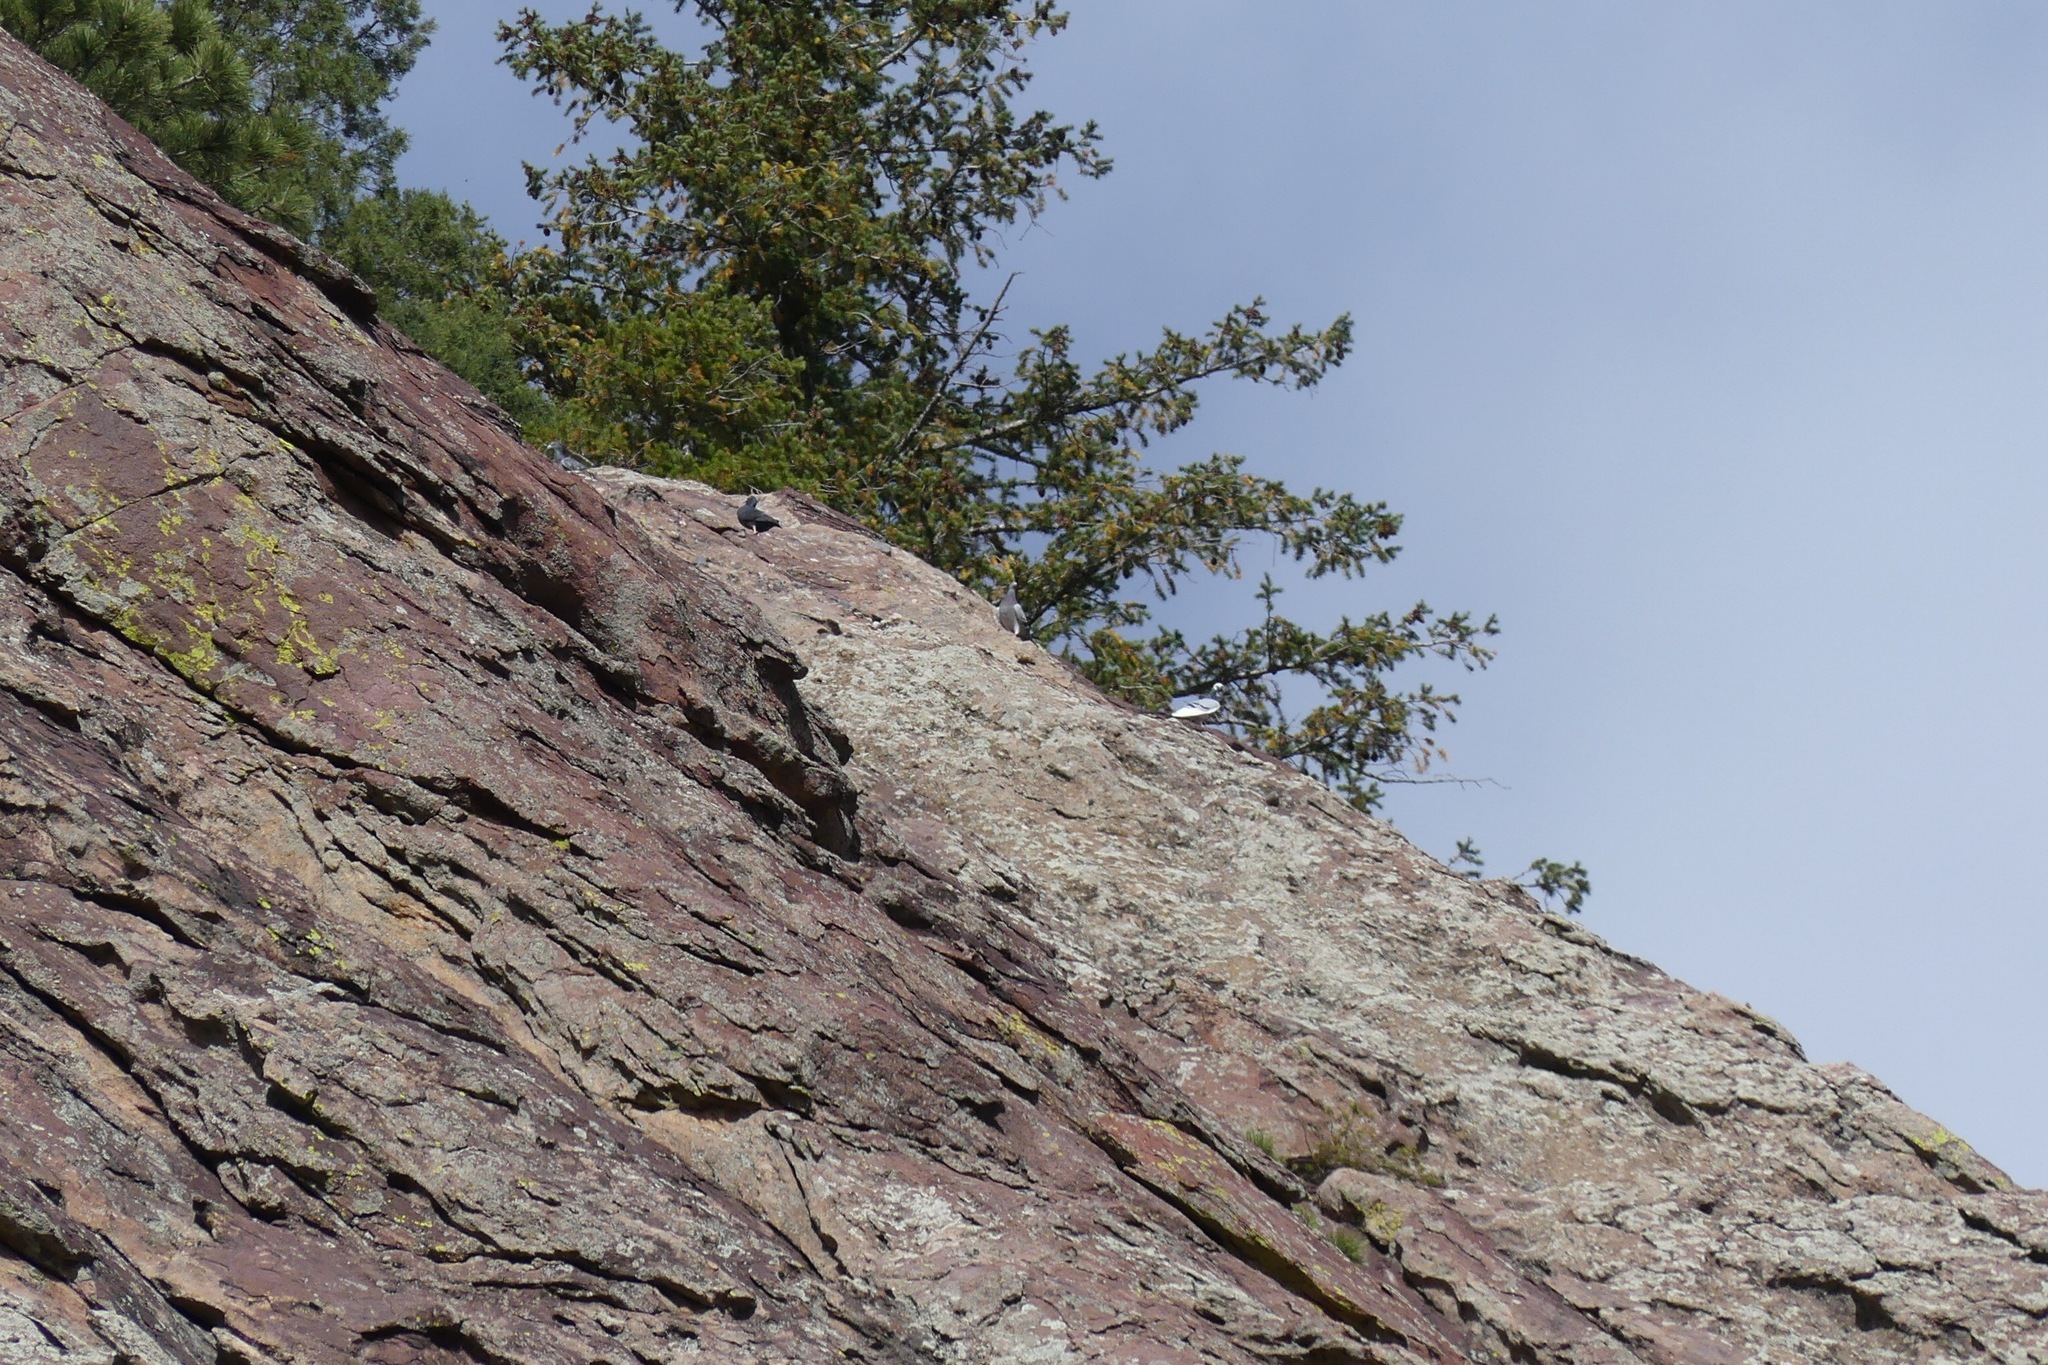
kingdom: Animalia
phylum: Chordata
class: Aves
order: Columbiformes
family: Columbidae
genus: Columba
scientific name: Columba livia
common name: Rock pigeon
